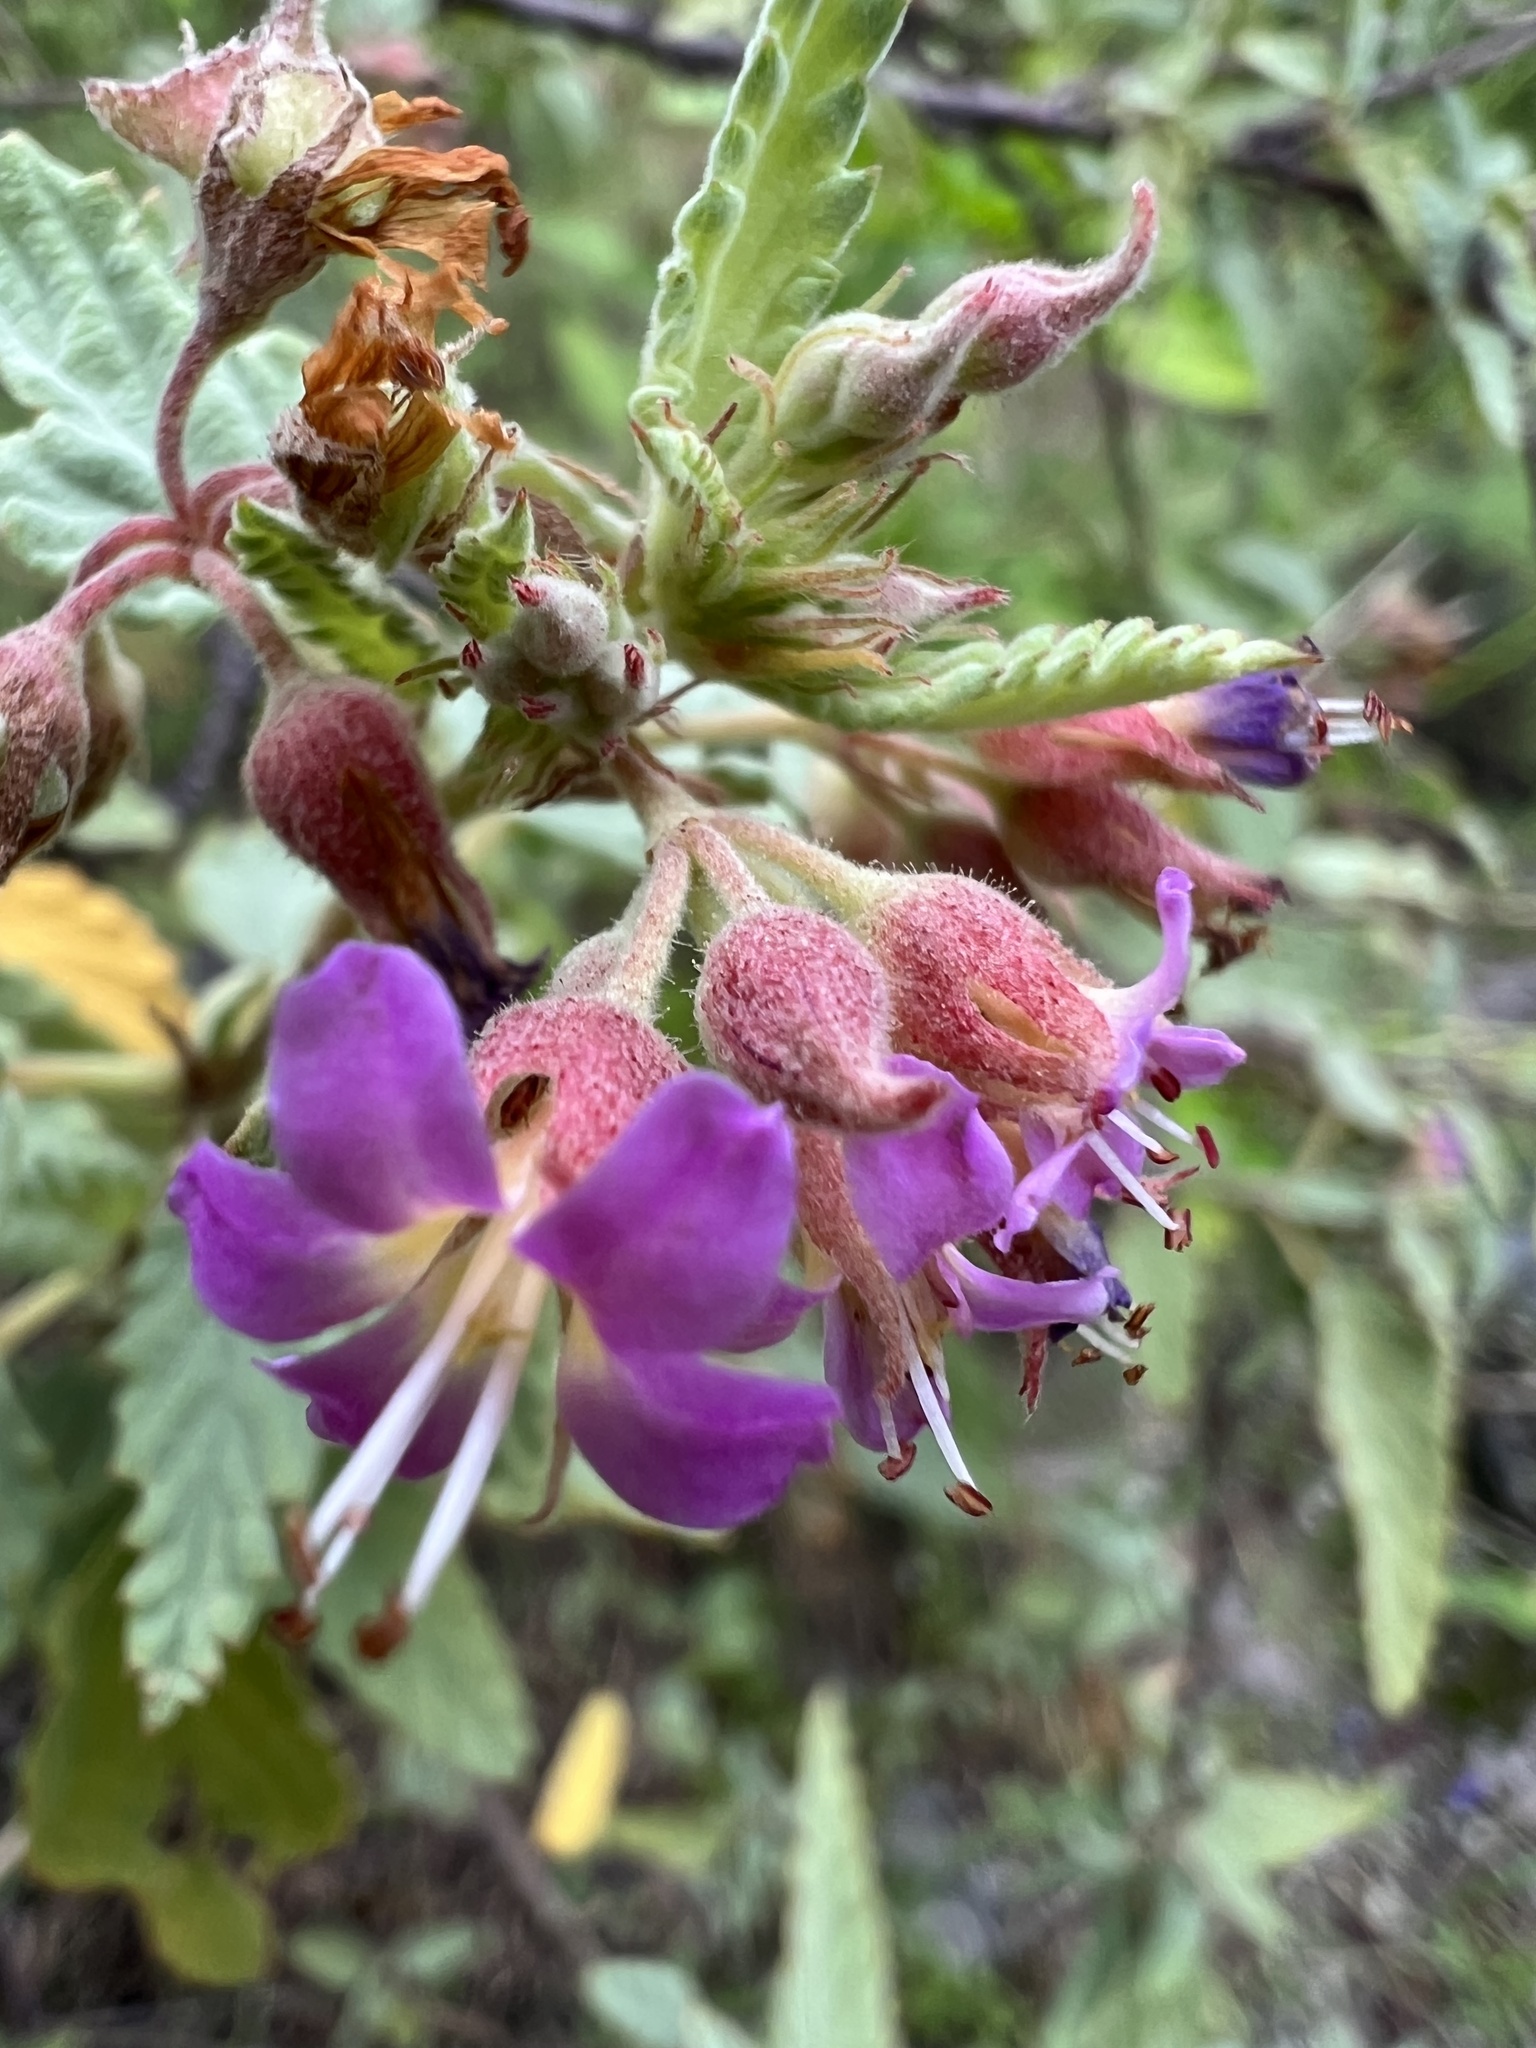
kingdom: Plantae
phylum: Tracheophyta
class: Magnoliopsida
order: Malvales
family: Malvaceae
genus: Melochia
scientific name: Melochia tomentosa
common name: Black torch
